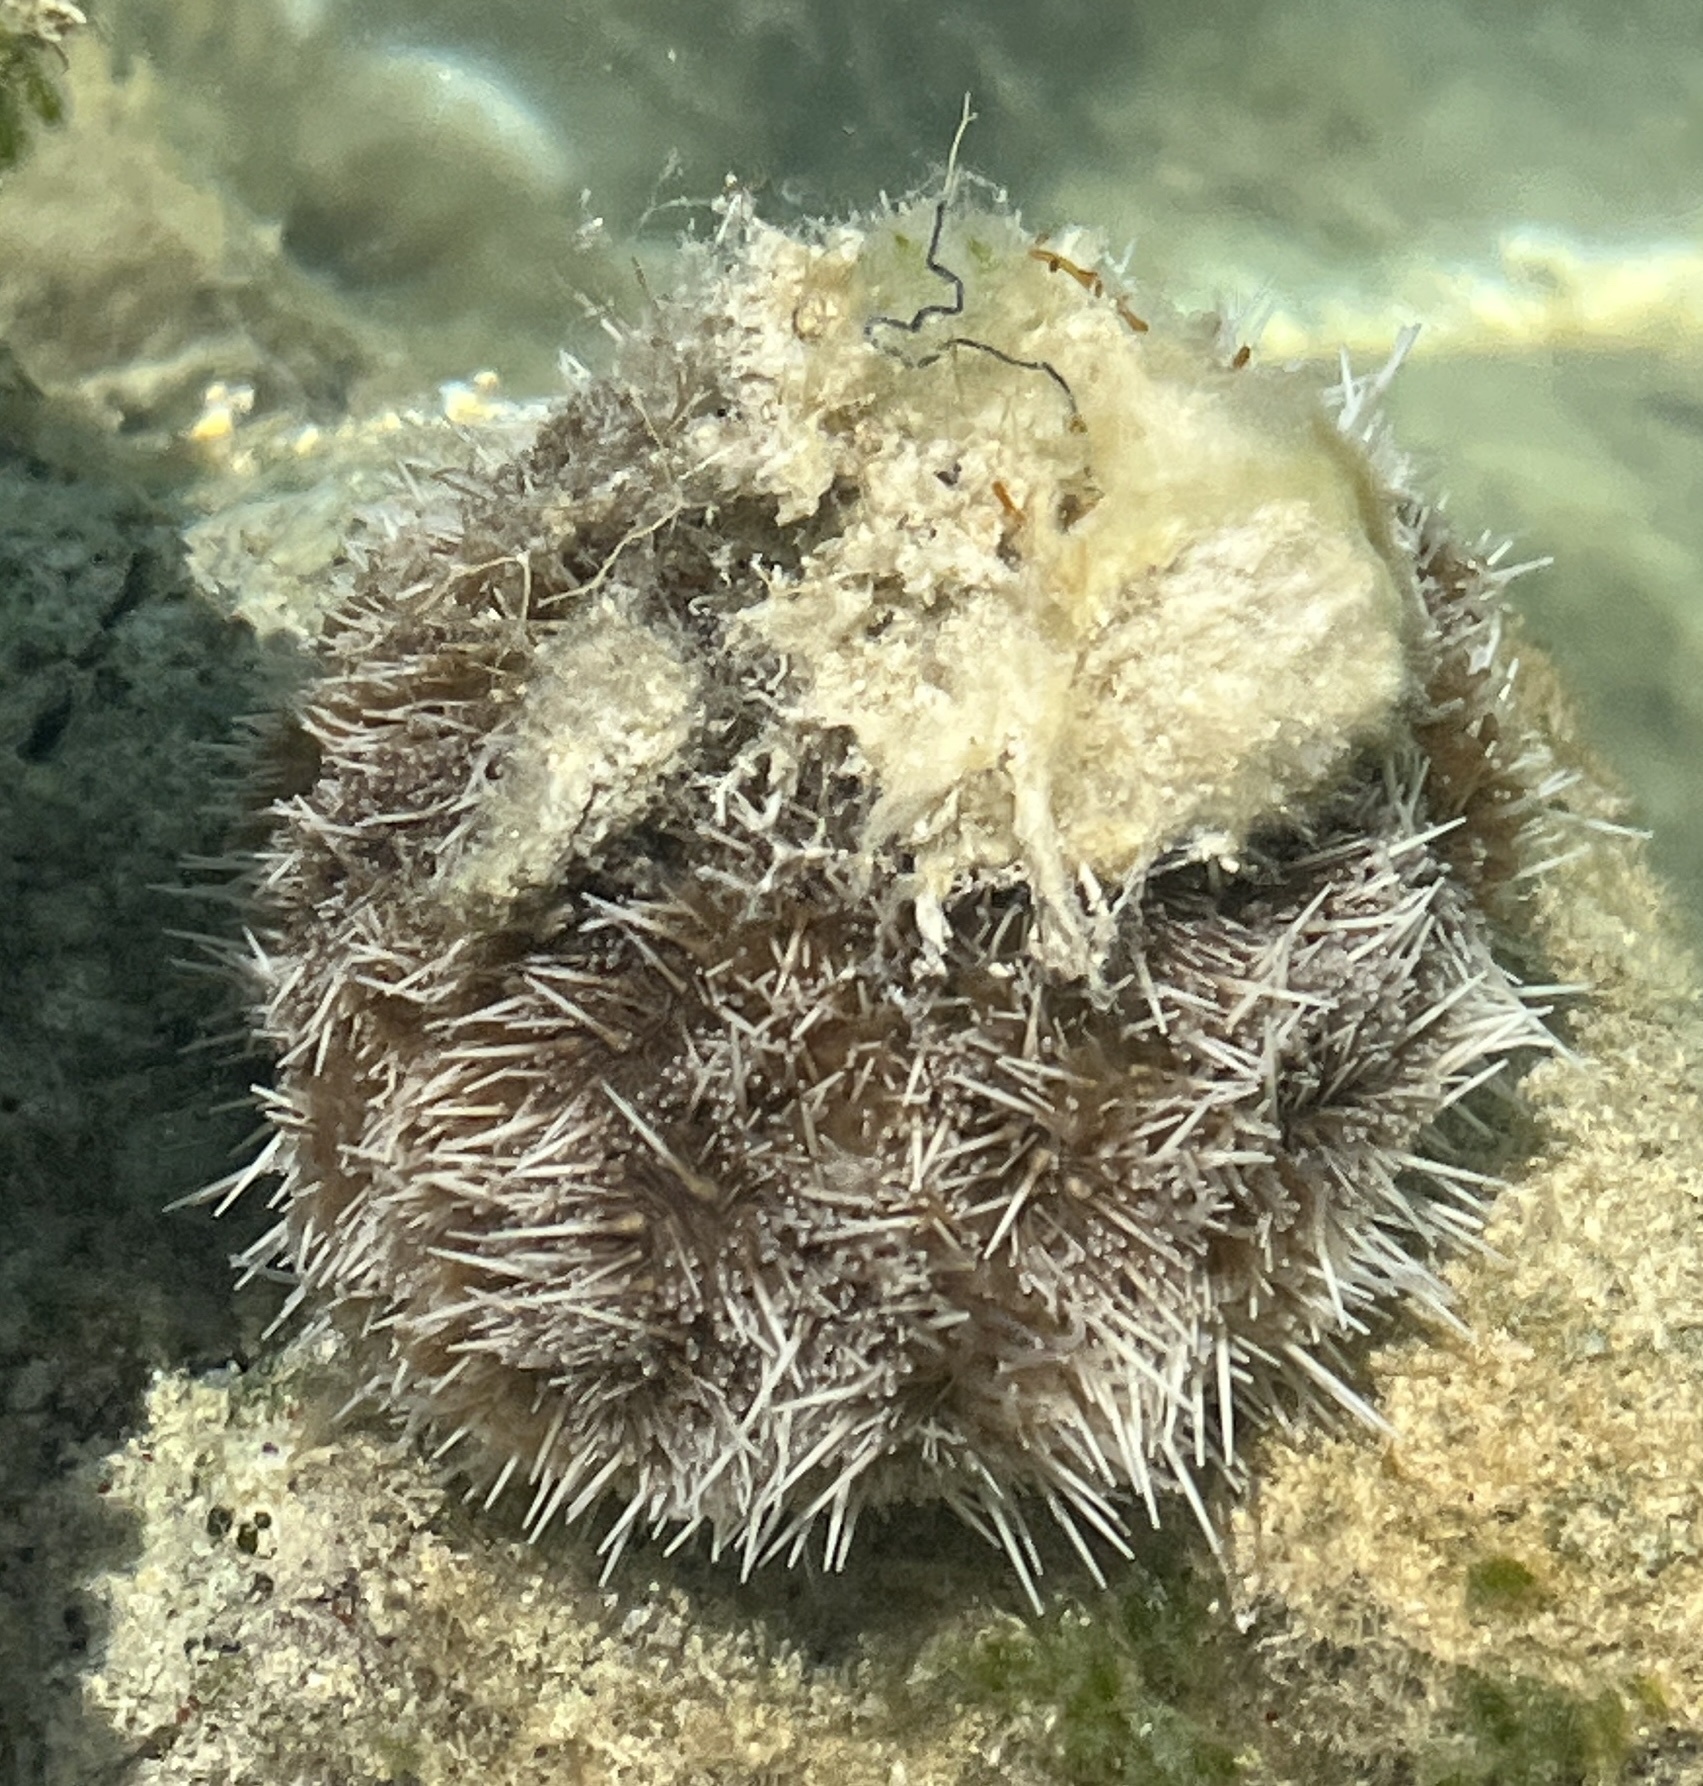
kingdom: Animalia
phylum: Echinodermata
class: Echinoidea
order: Camarodonta
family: Toxopneustidae
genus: Tripneustes
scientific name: Tripneustes ventricosus
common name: West indian sea egg
